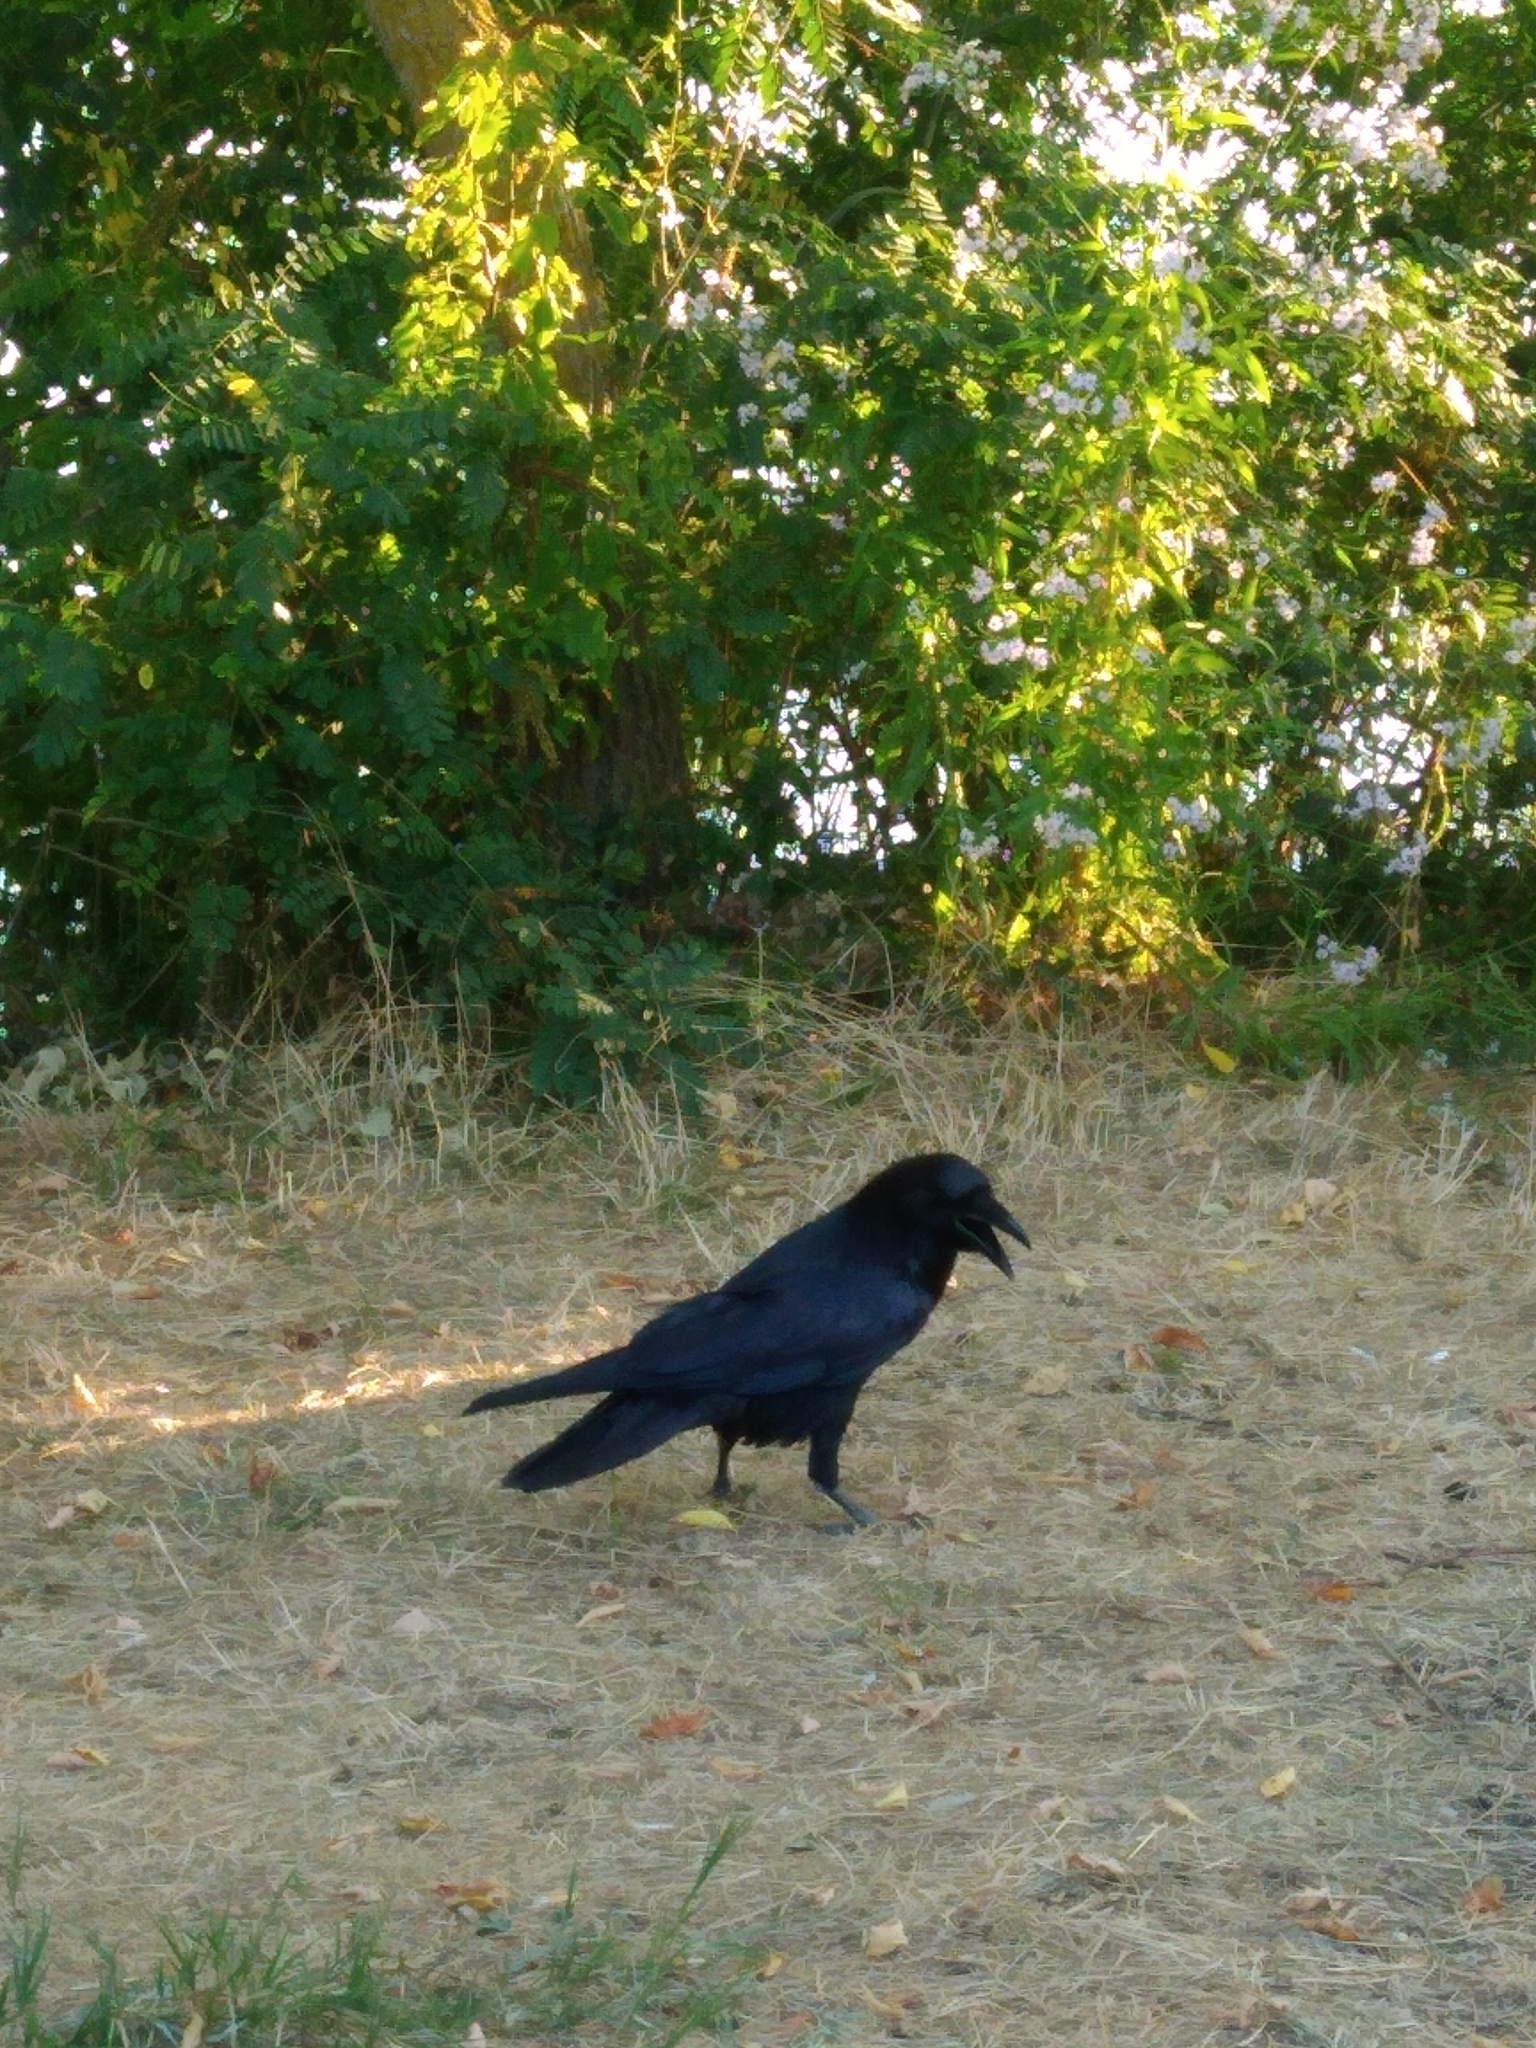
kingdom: Animalia
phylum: Chordata
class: Aves
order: Passeriformes
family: Corvidae
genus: Corvus
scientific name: Corvus corax
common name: Common raven
